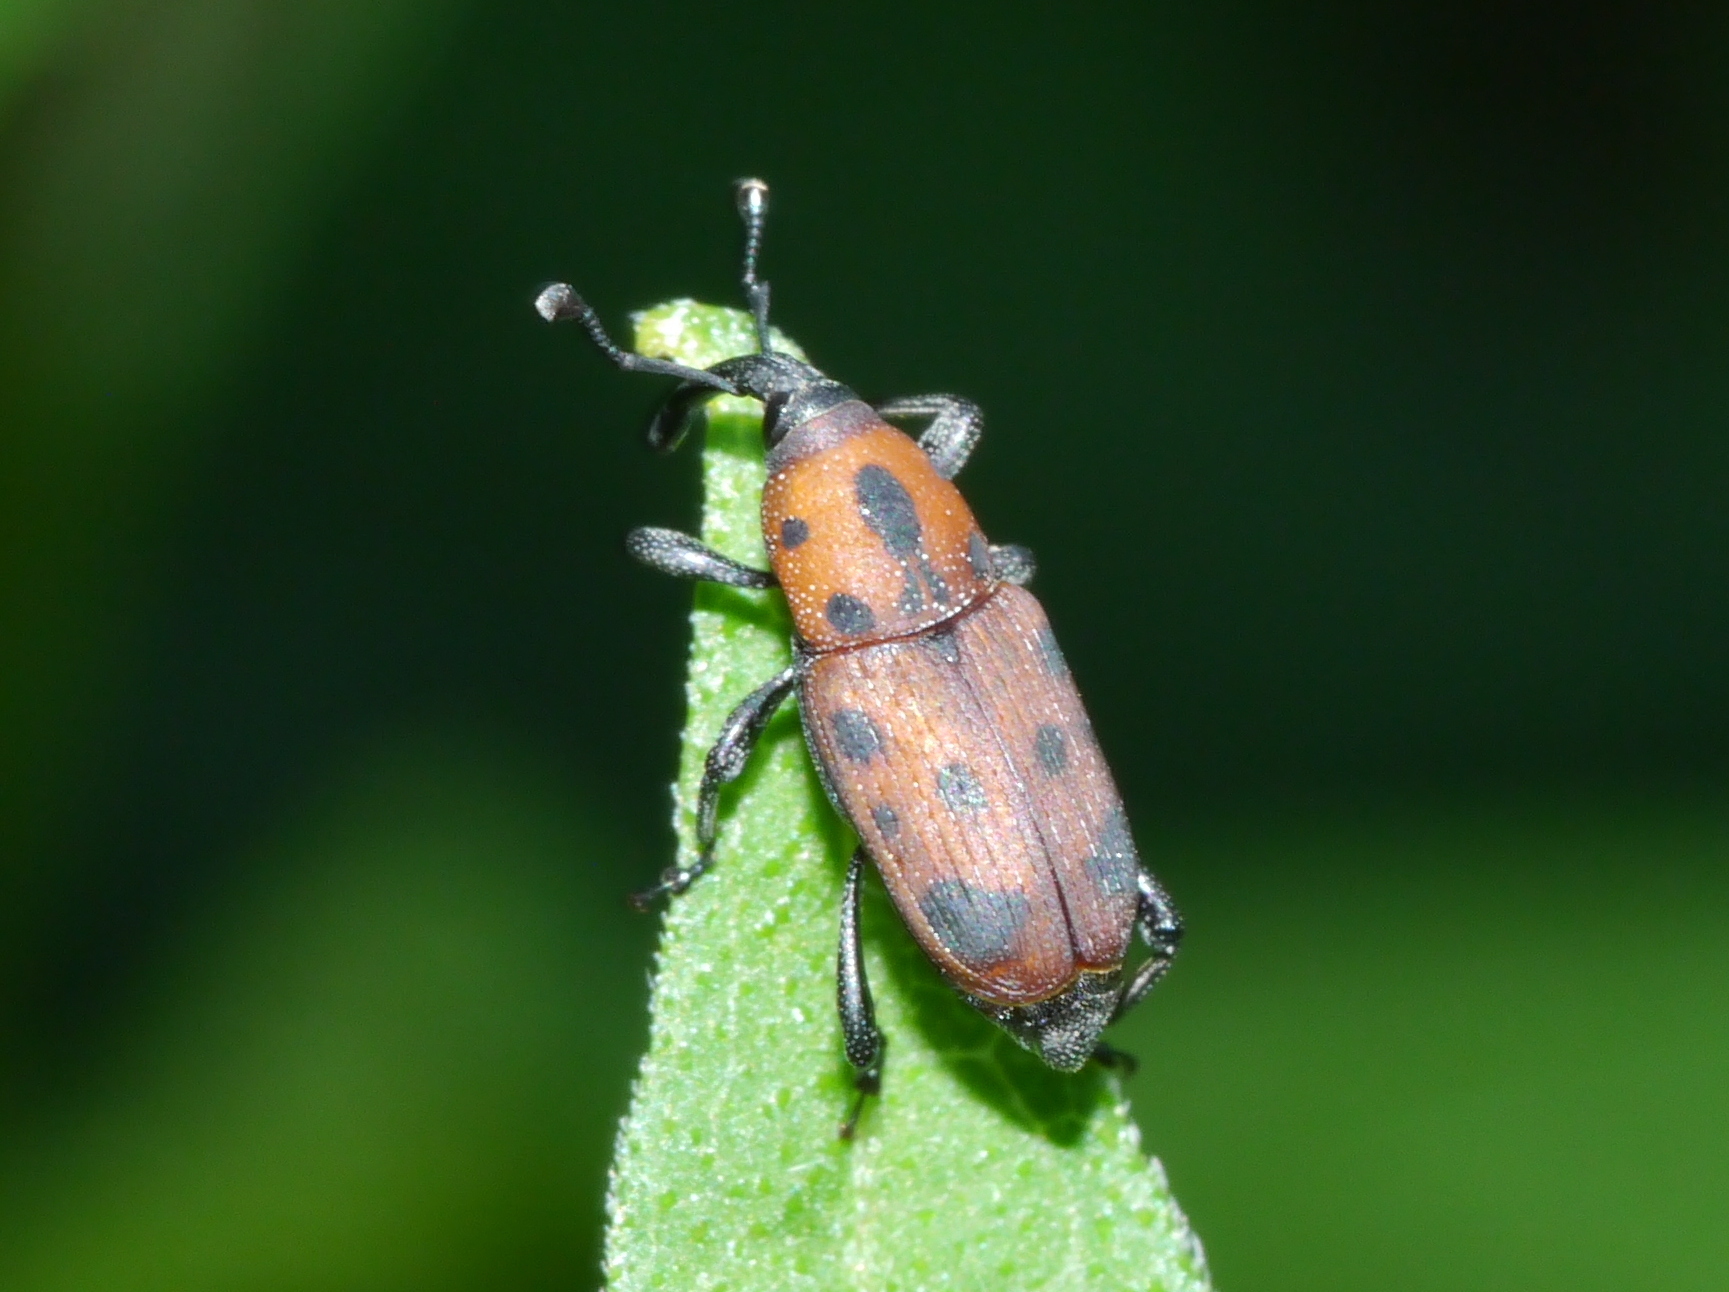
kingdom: Animalia
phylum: Arthropoda
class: Insecta
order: Coleoptera
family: Dryophthoridae
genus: Rhodobaenus
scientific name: Rhodobaenus tredecimpunctatus
